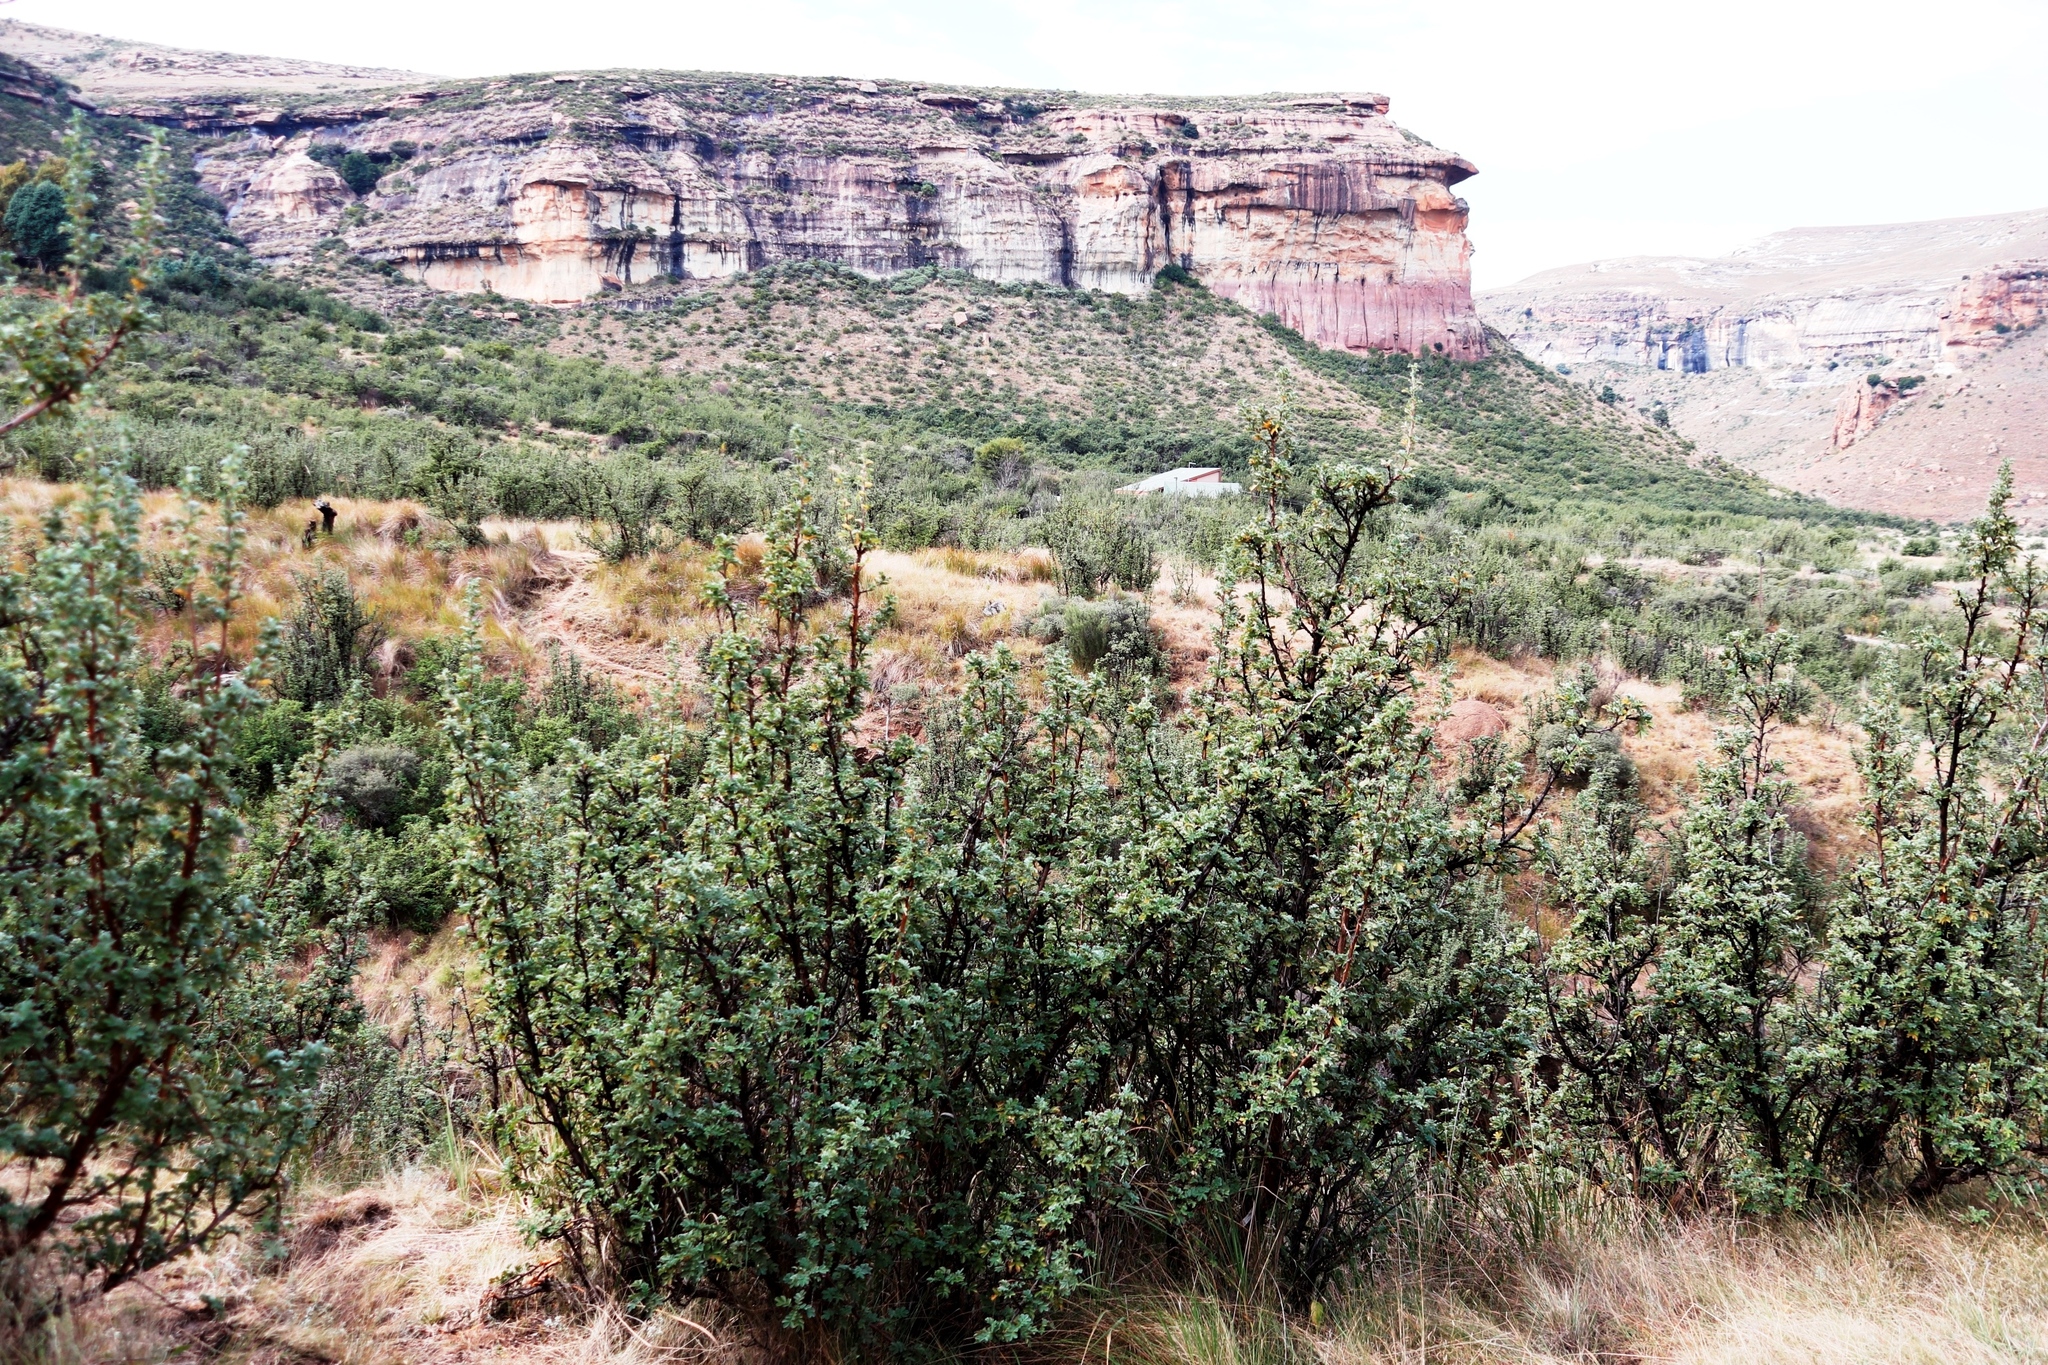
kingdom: Plantae
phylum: Tracheophyta
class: Magnoliopsida
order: Rosales
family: Rosaceae
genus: Leucosidea
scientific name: Leucosidea sericea
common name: Oldwood
